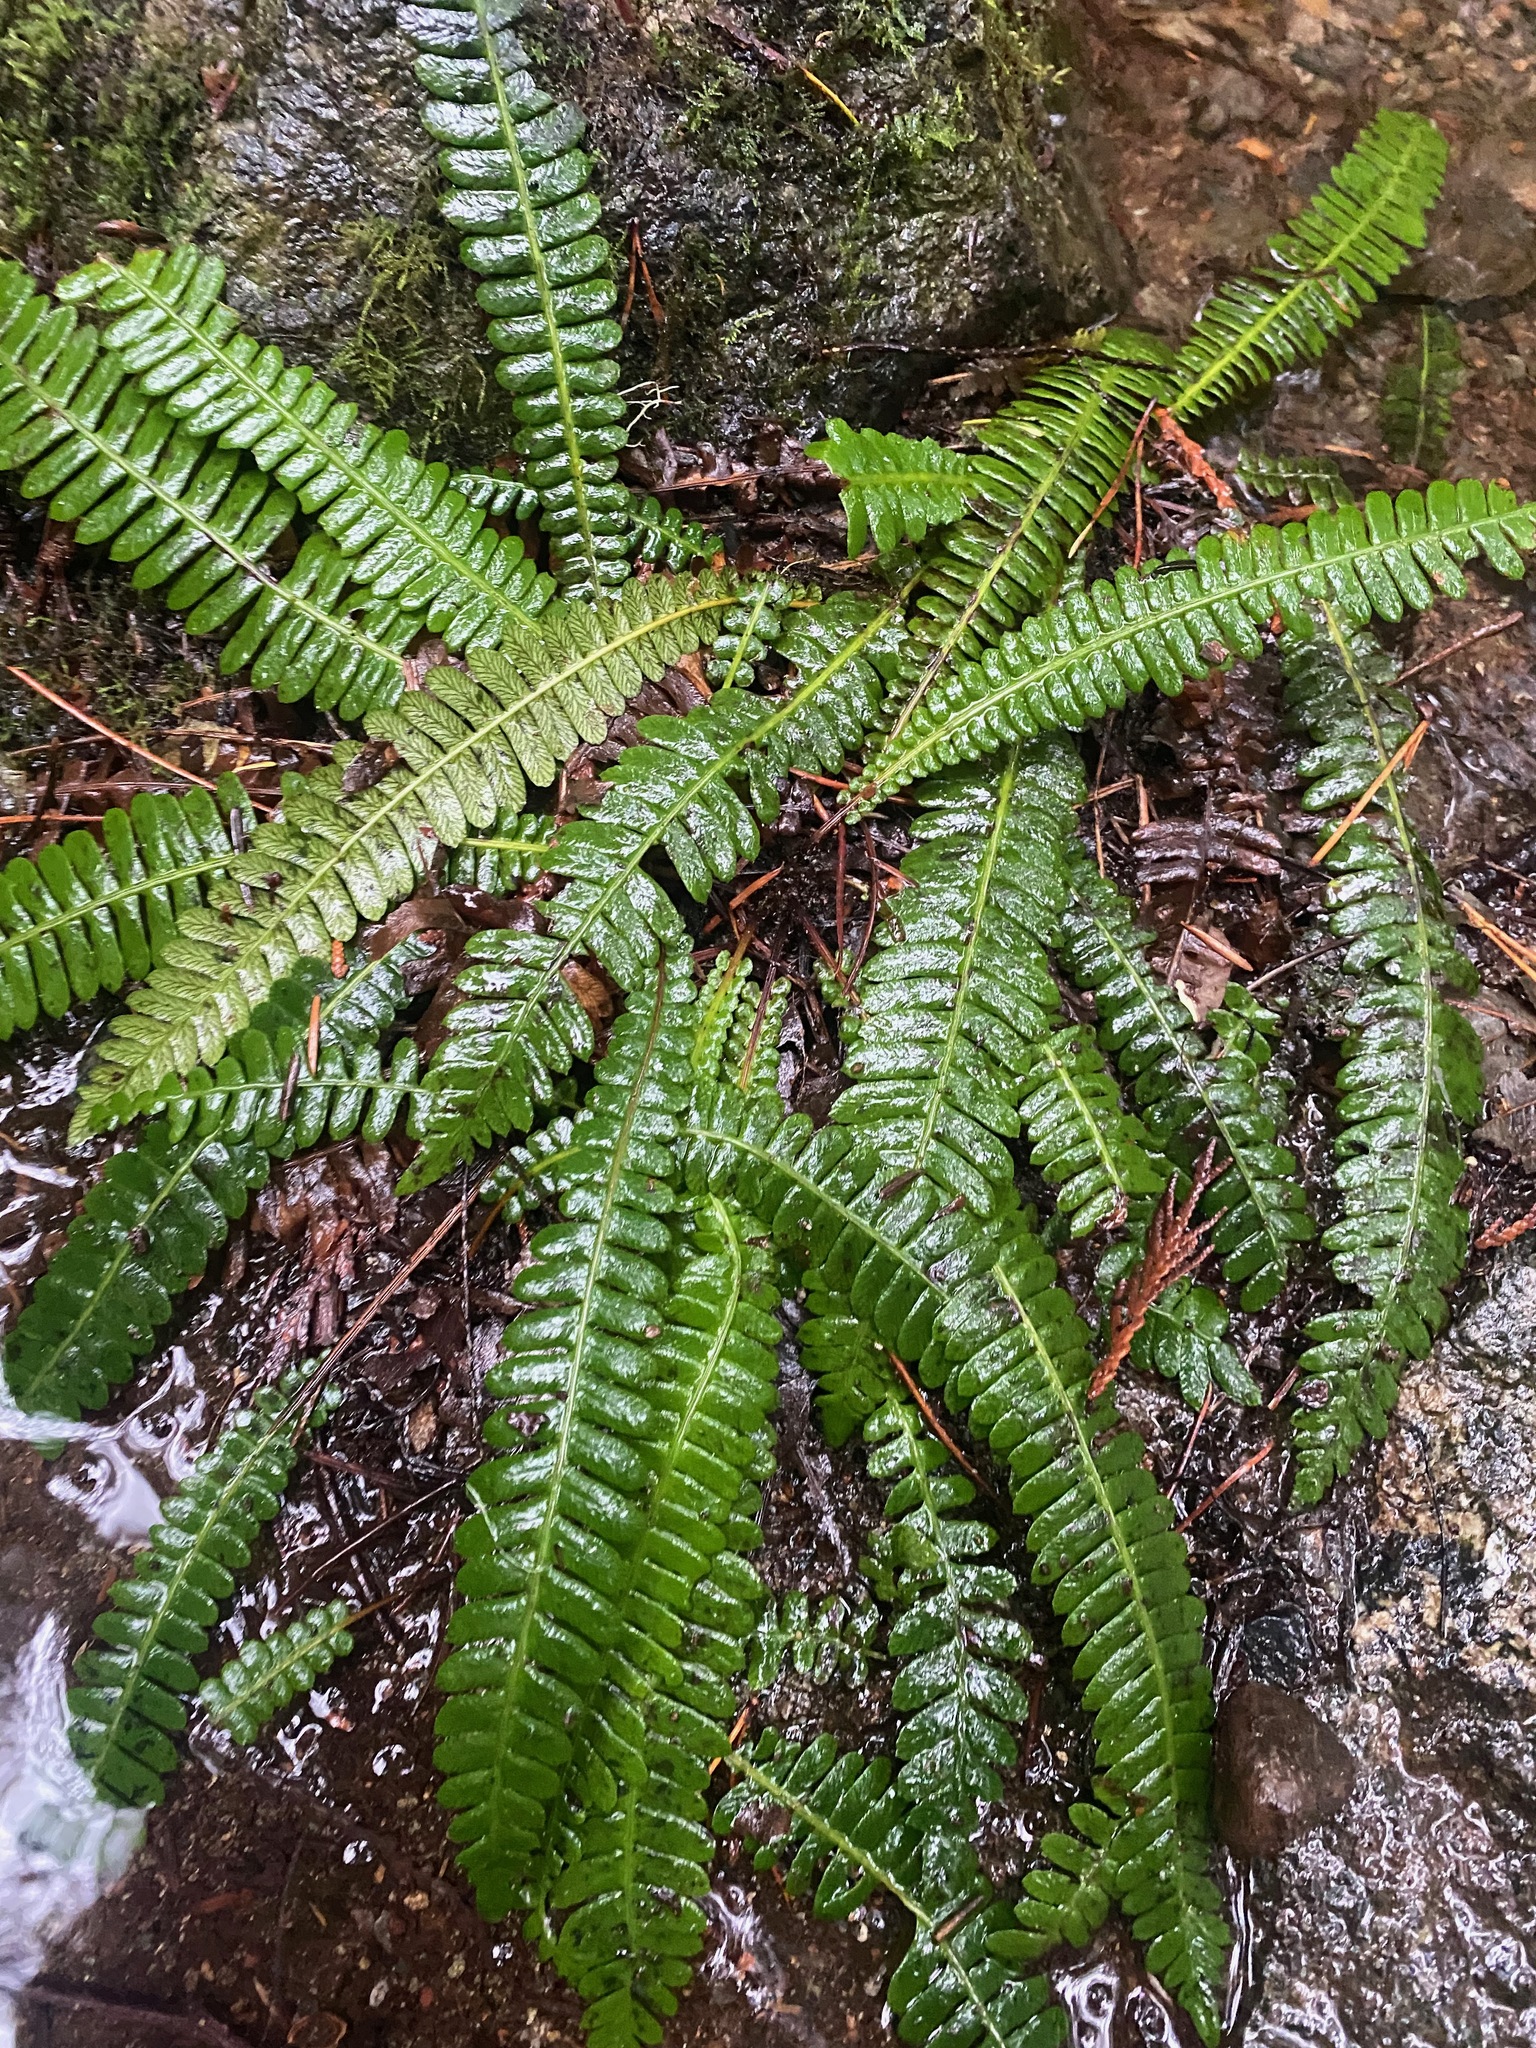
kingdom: Plantae
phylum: Tracheophyta
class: Polypodiopsida
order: Polypodiales
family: Blechnaceae
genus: Struthiopteris
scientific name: Struthiopteris spicant
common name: Deer fern
